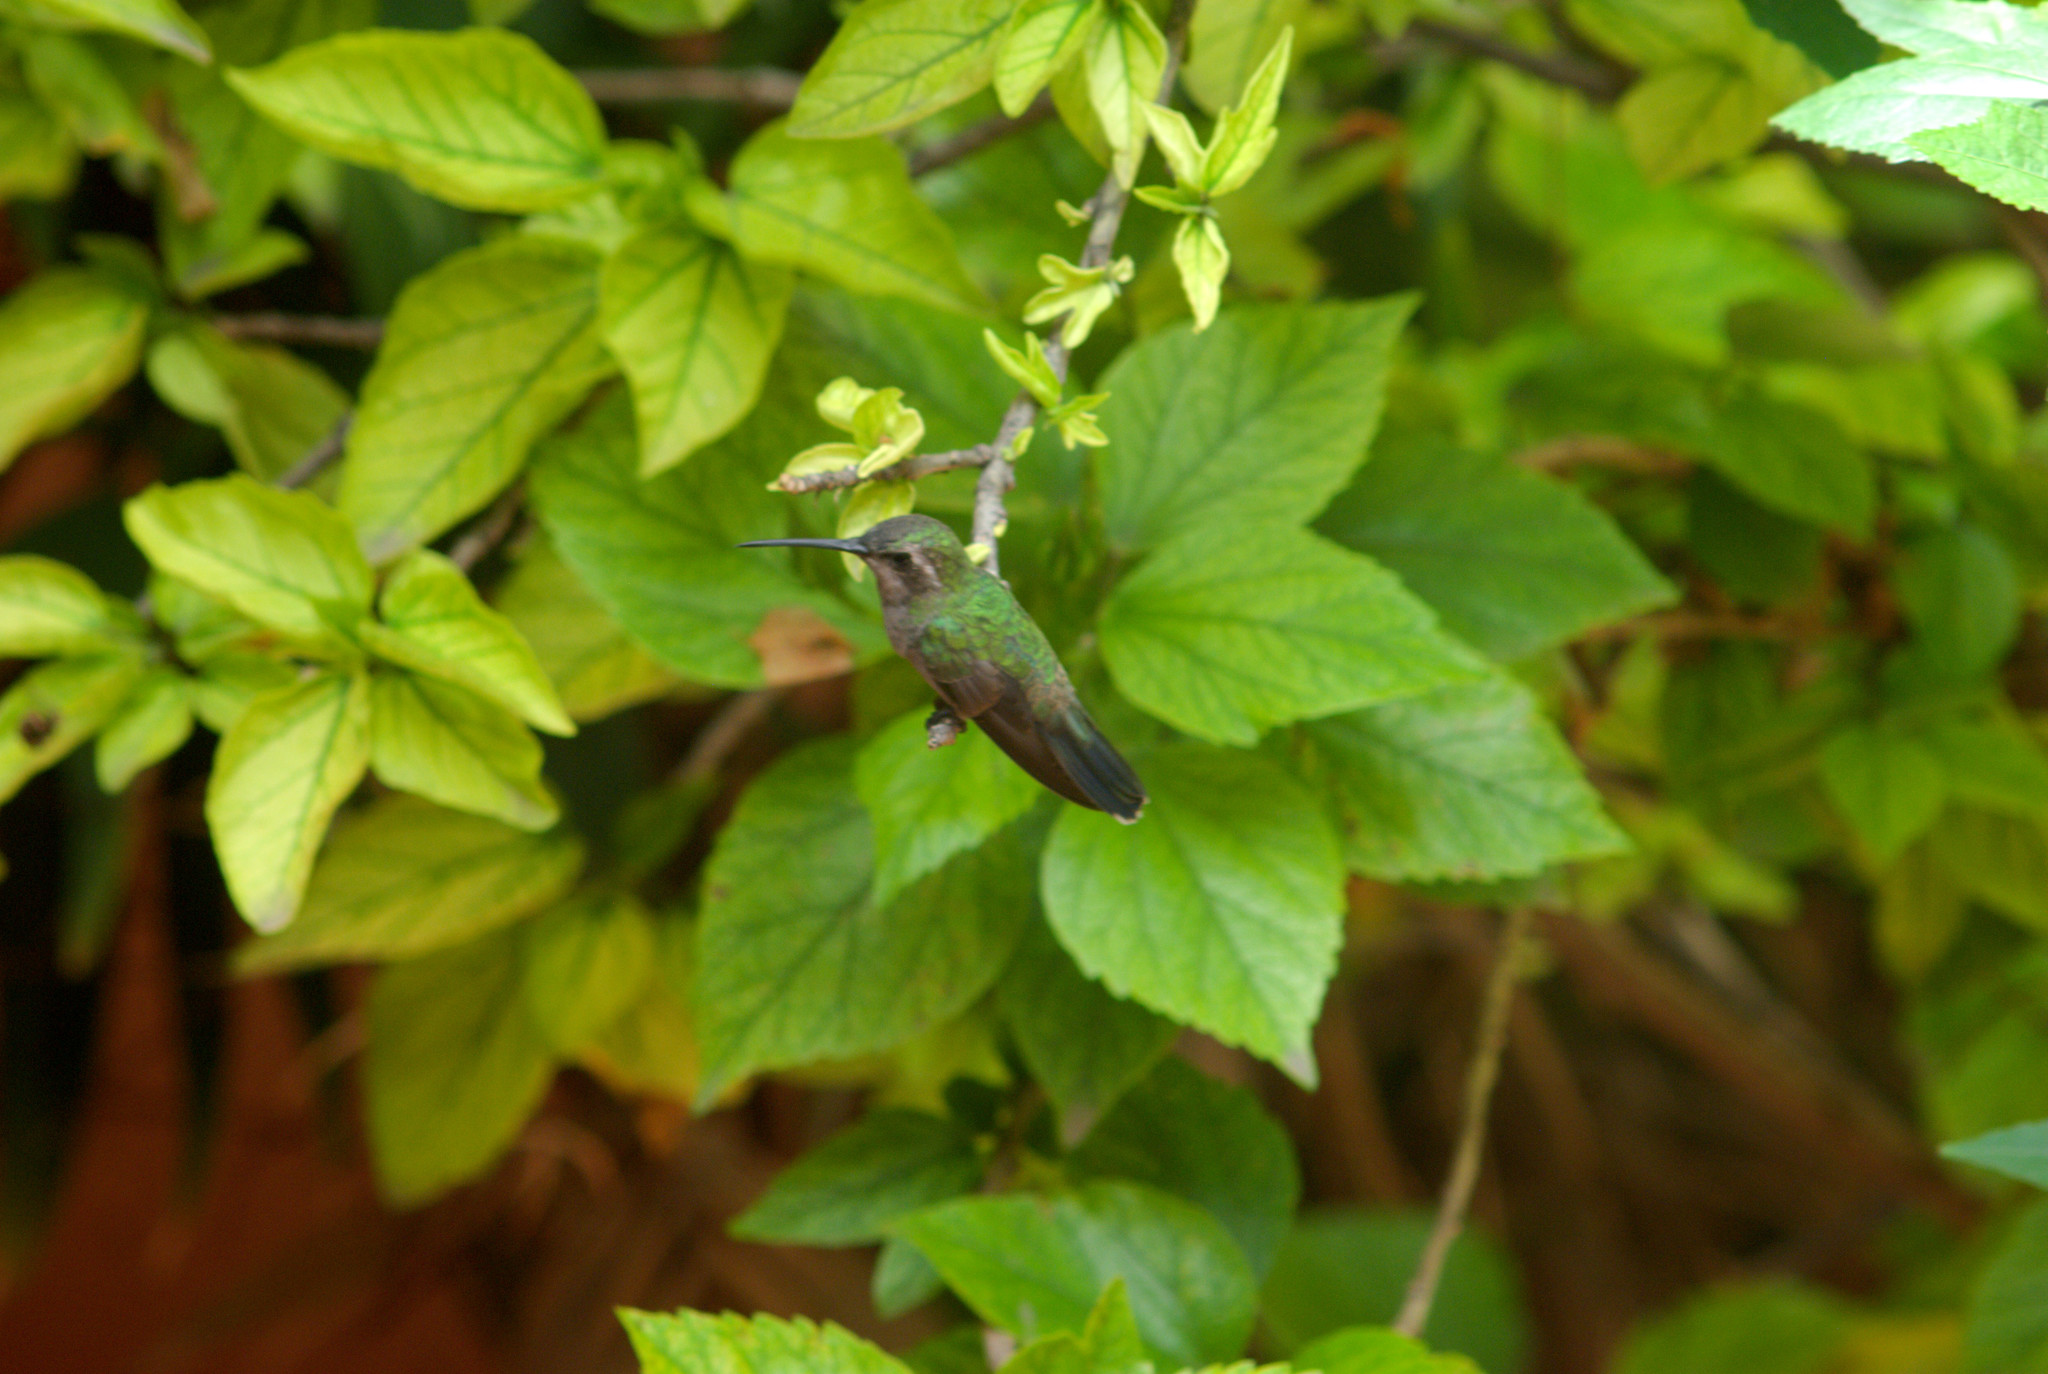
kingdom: Animalia
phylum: Chordata
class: Aves
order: Apodiformes
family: Trochilidae
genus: Cynanthus
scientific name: Cynanthus latirostris
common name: Broad-billed hummingbird
